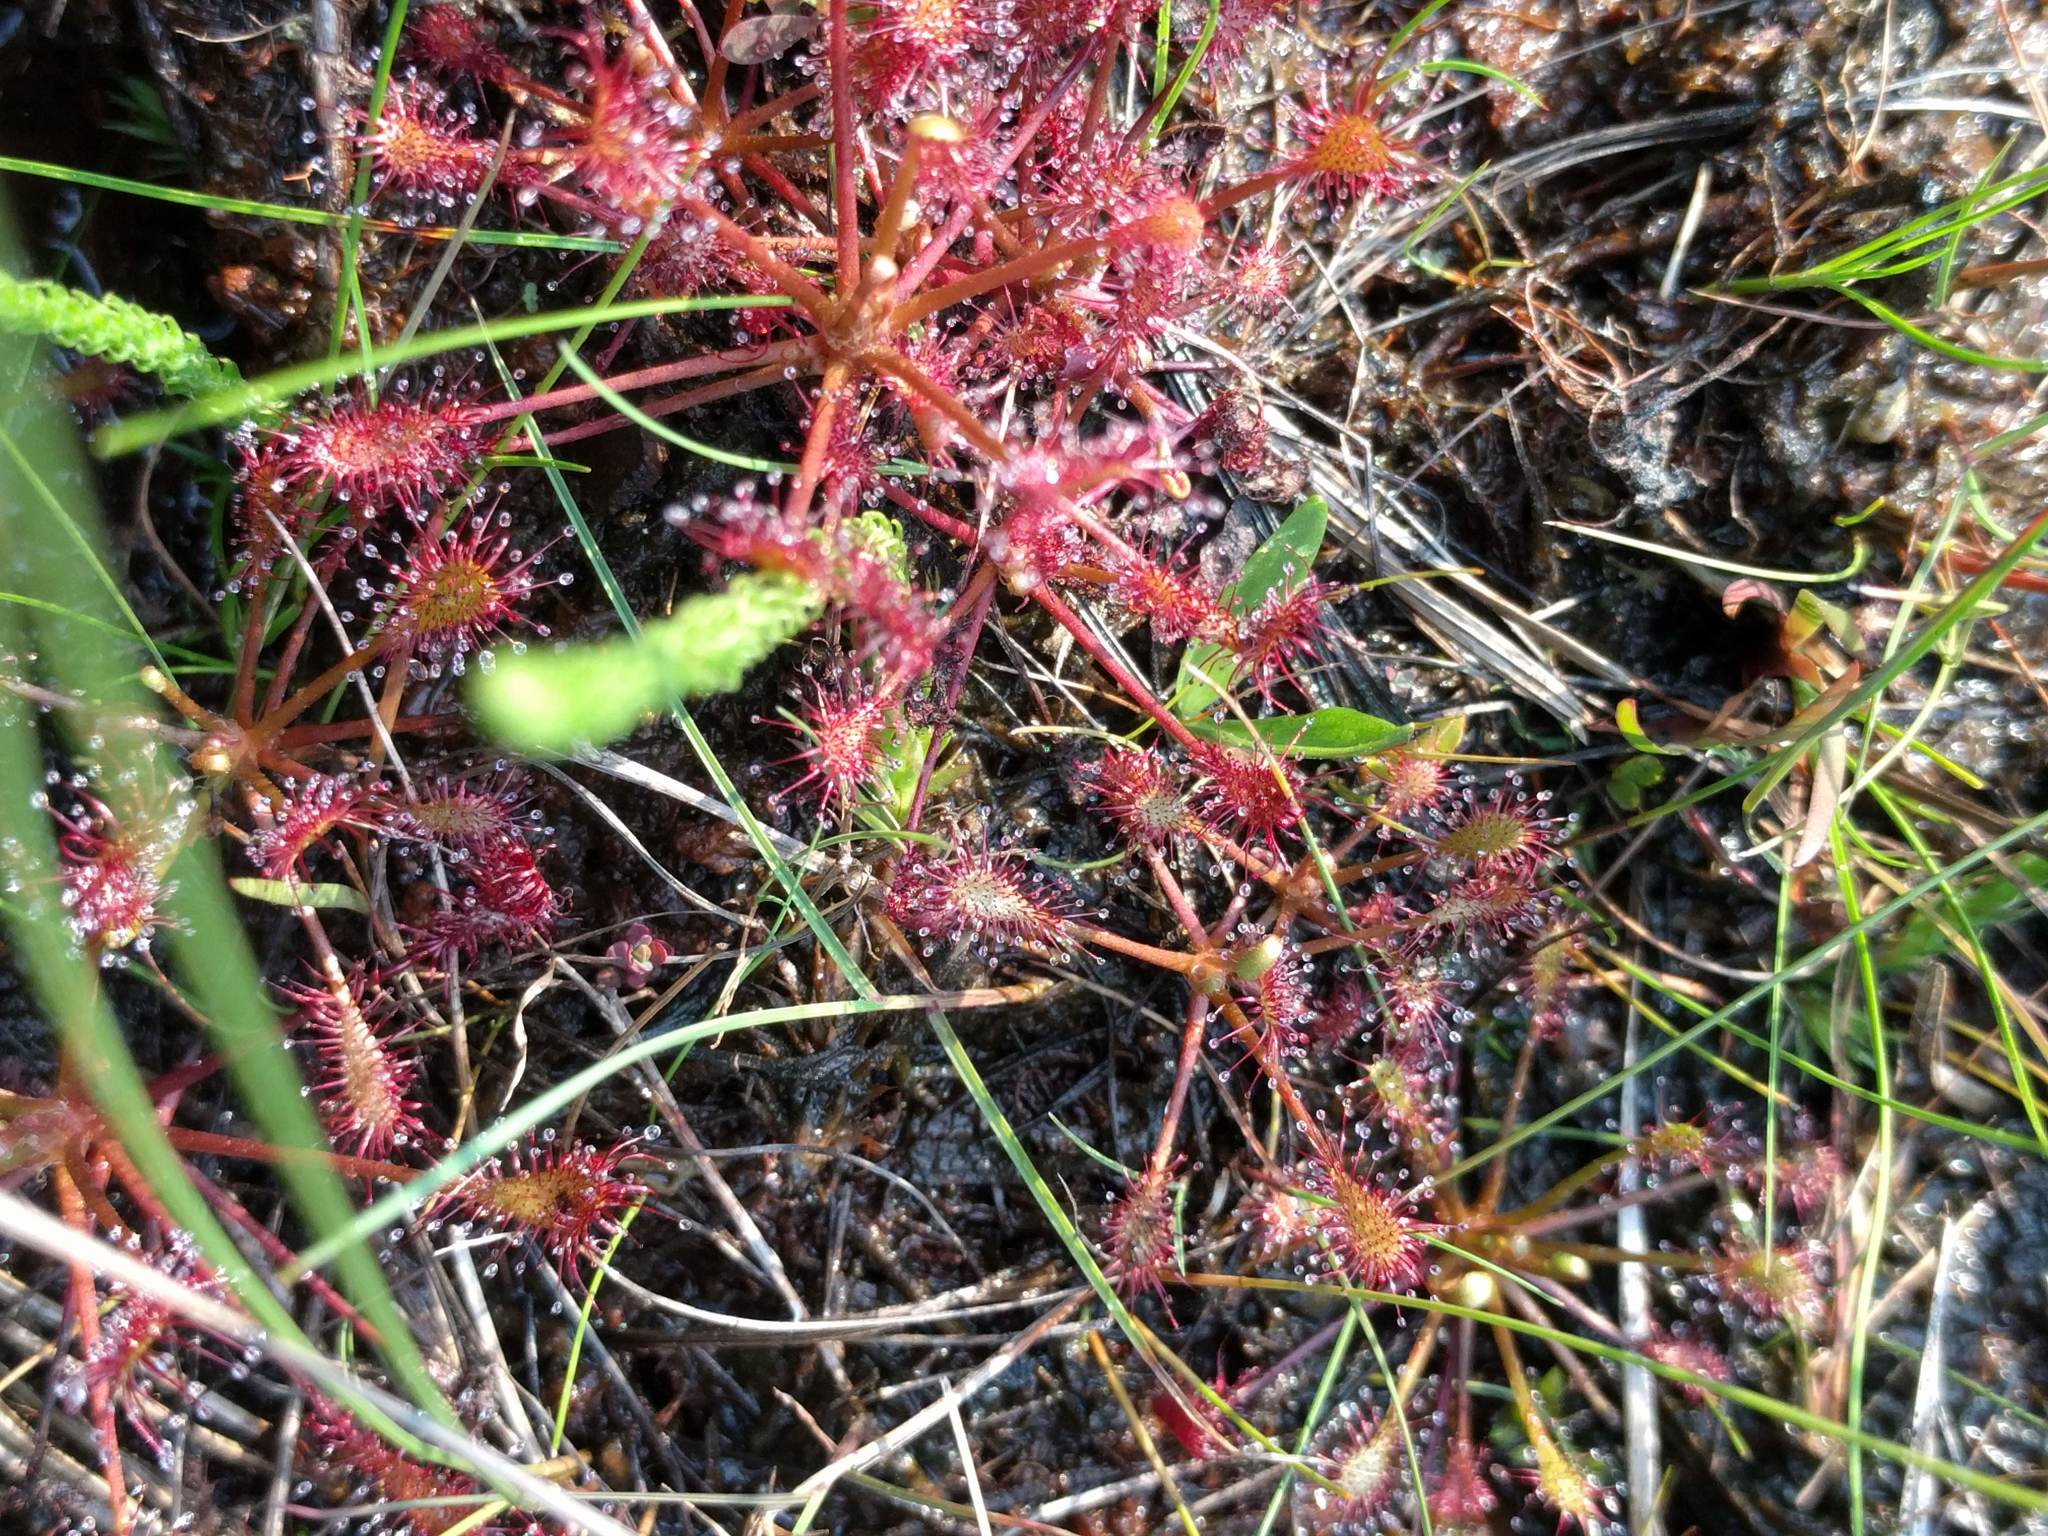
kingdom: Plantae
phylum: Tracheophyta
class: Magnoliopsida
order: Caryophyllales
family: Droseraceae
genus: Drosera
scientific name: Drosera intermedia
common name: Oblong-leaved sundew
